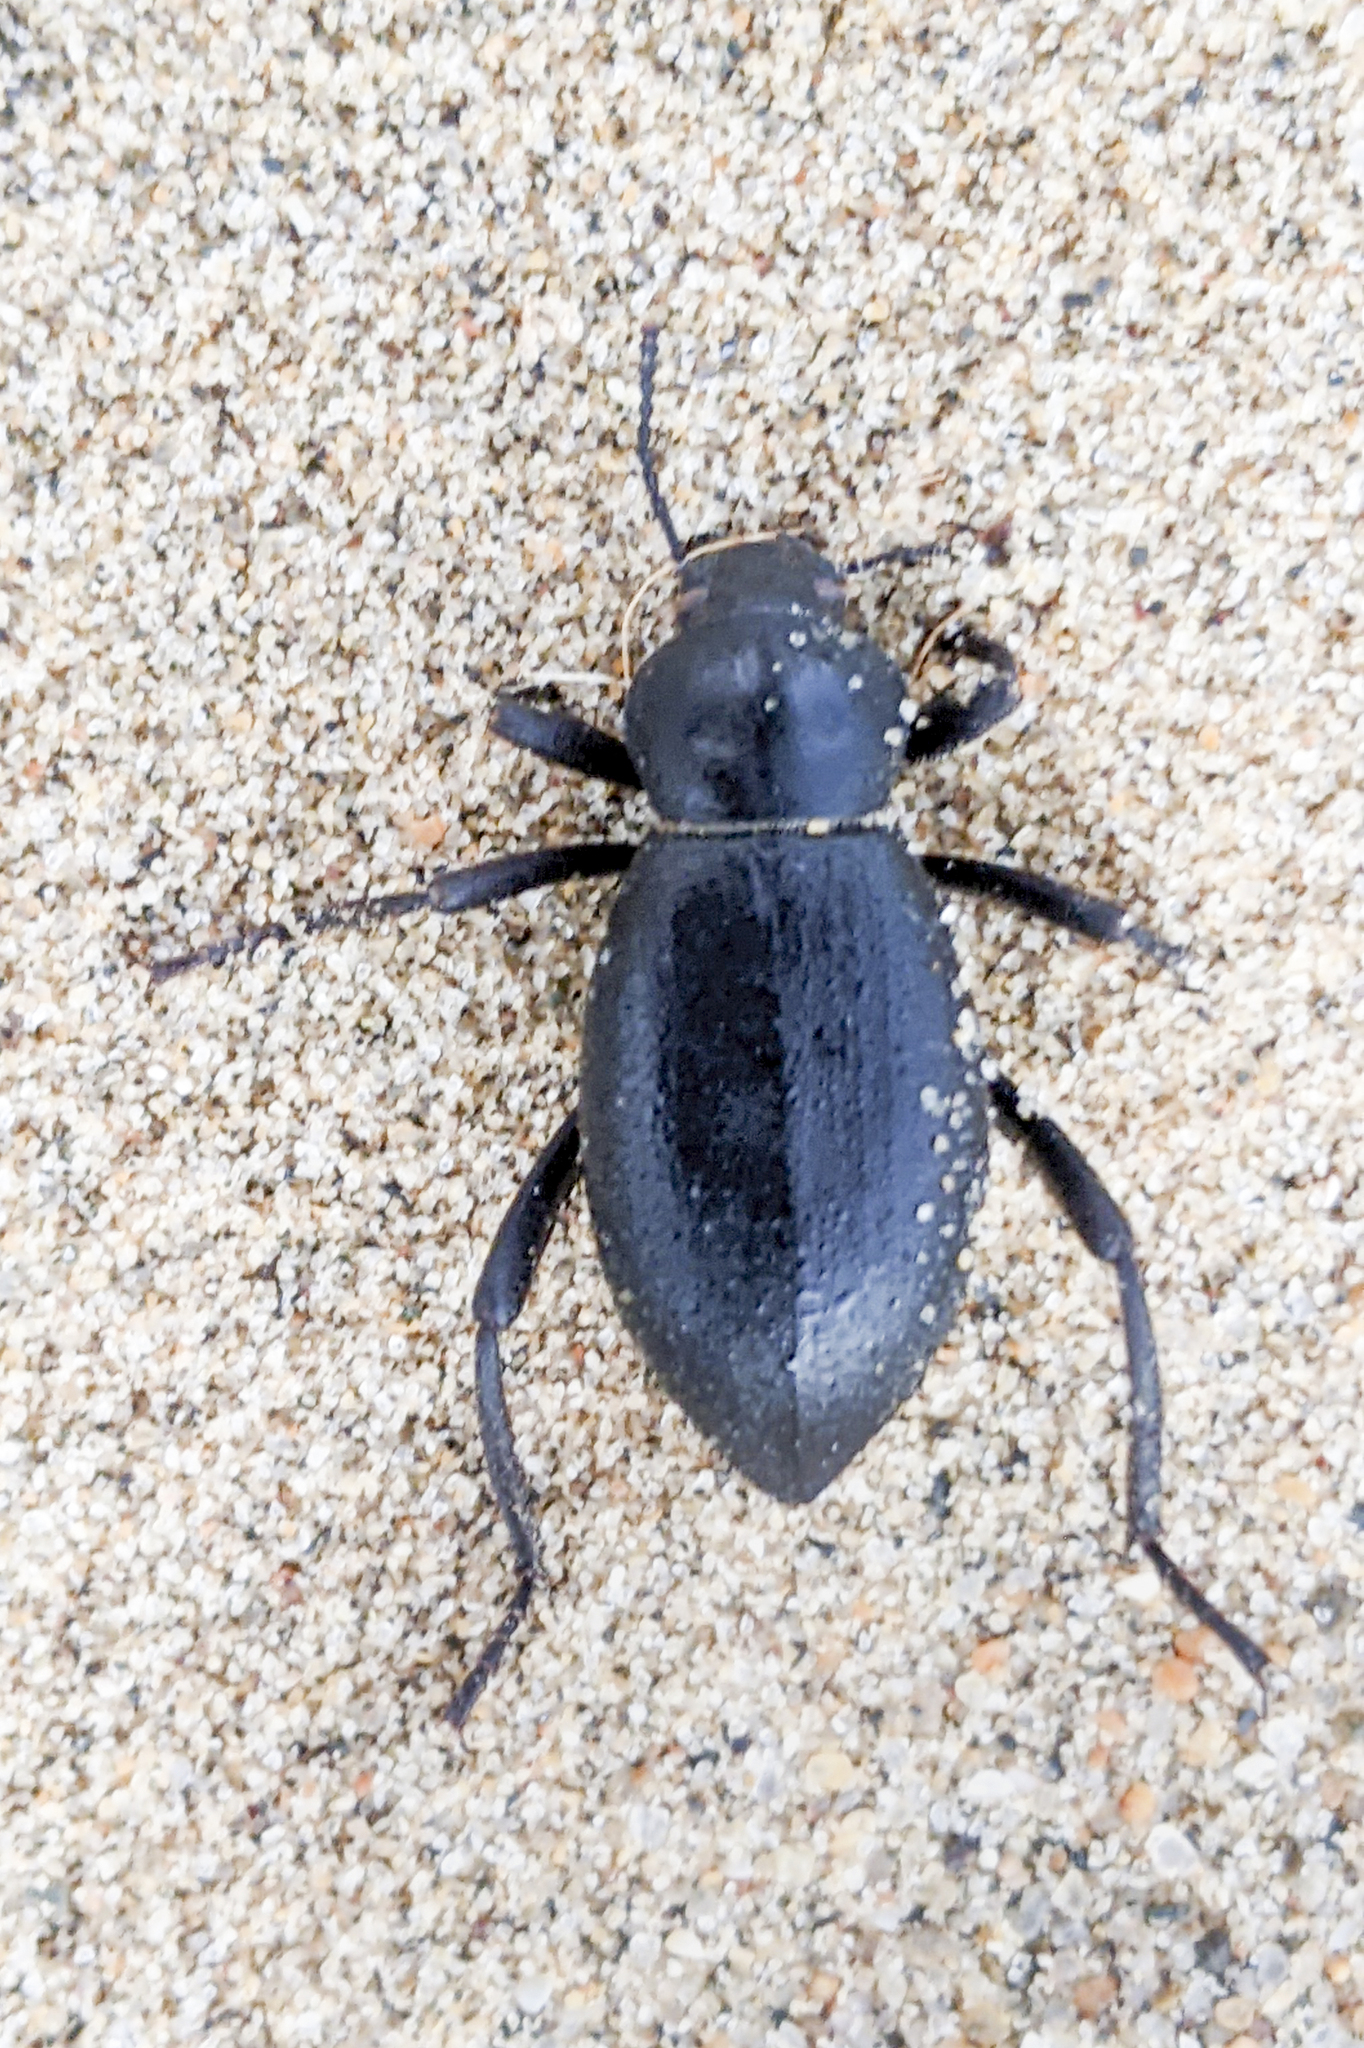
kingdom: Animalia
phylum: Arthropoda
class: Insecta
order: Coleoptera
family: Tenebrionidae
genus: Eleodes
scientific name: Eleodes moesta
